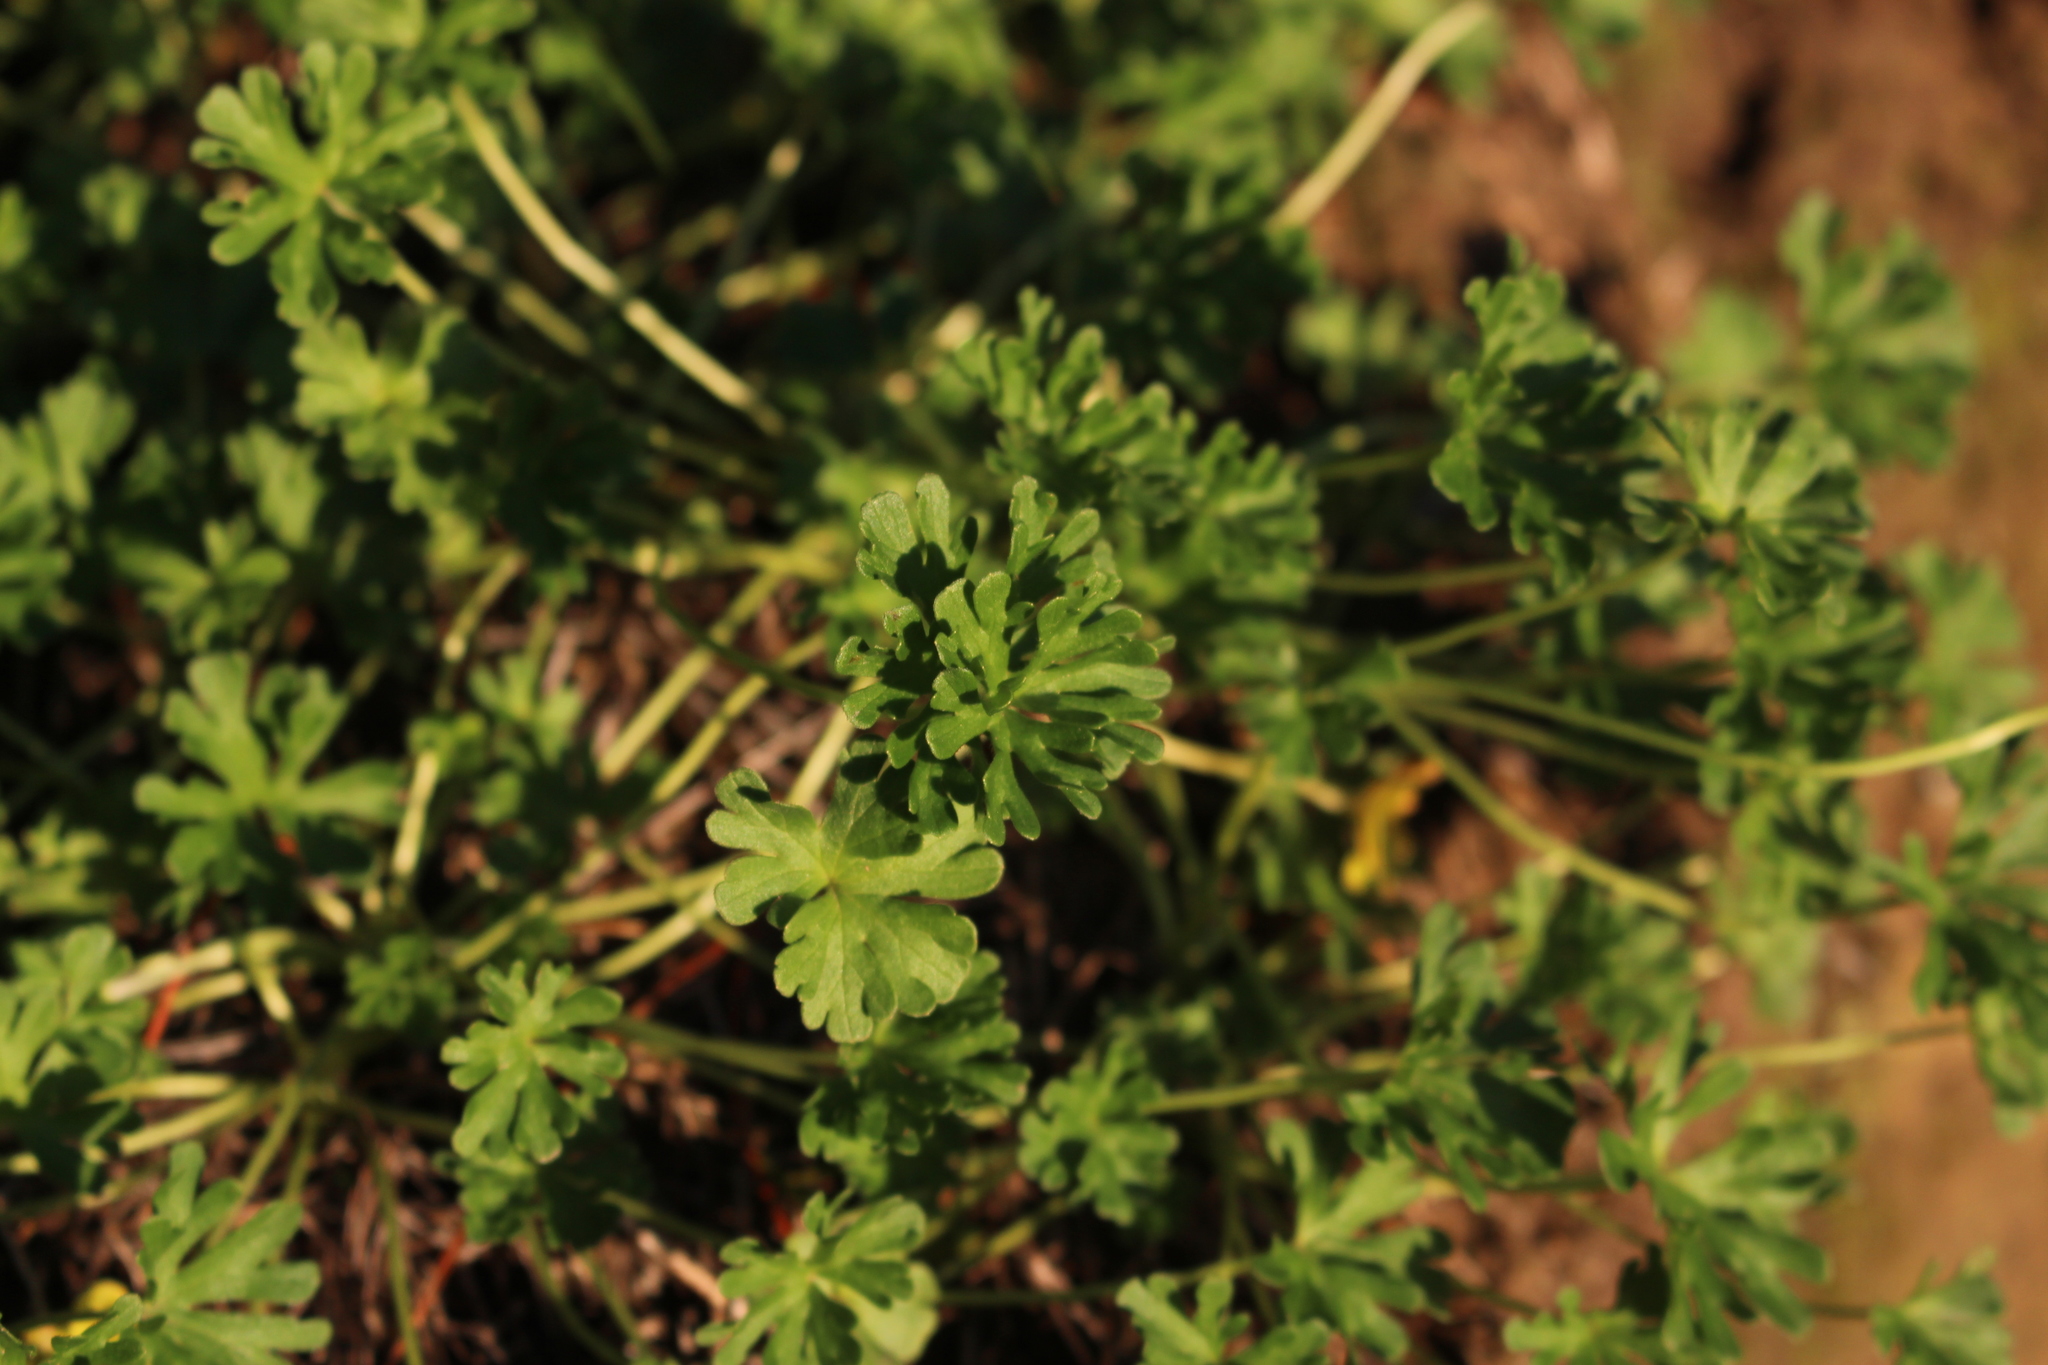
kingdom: Plantae
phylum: Tracheophyta
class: Magnoliopsida
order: Geraniales
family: Geraniaceae
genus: Geranium
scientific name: Geranium retrorsum
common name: New zealand geranium
